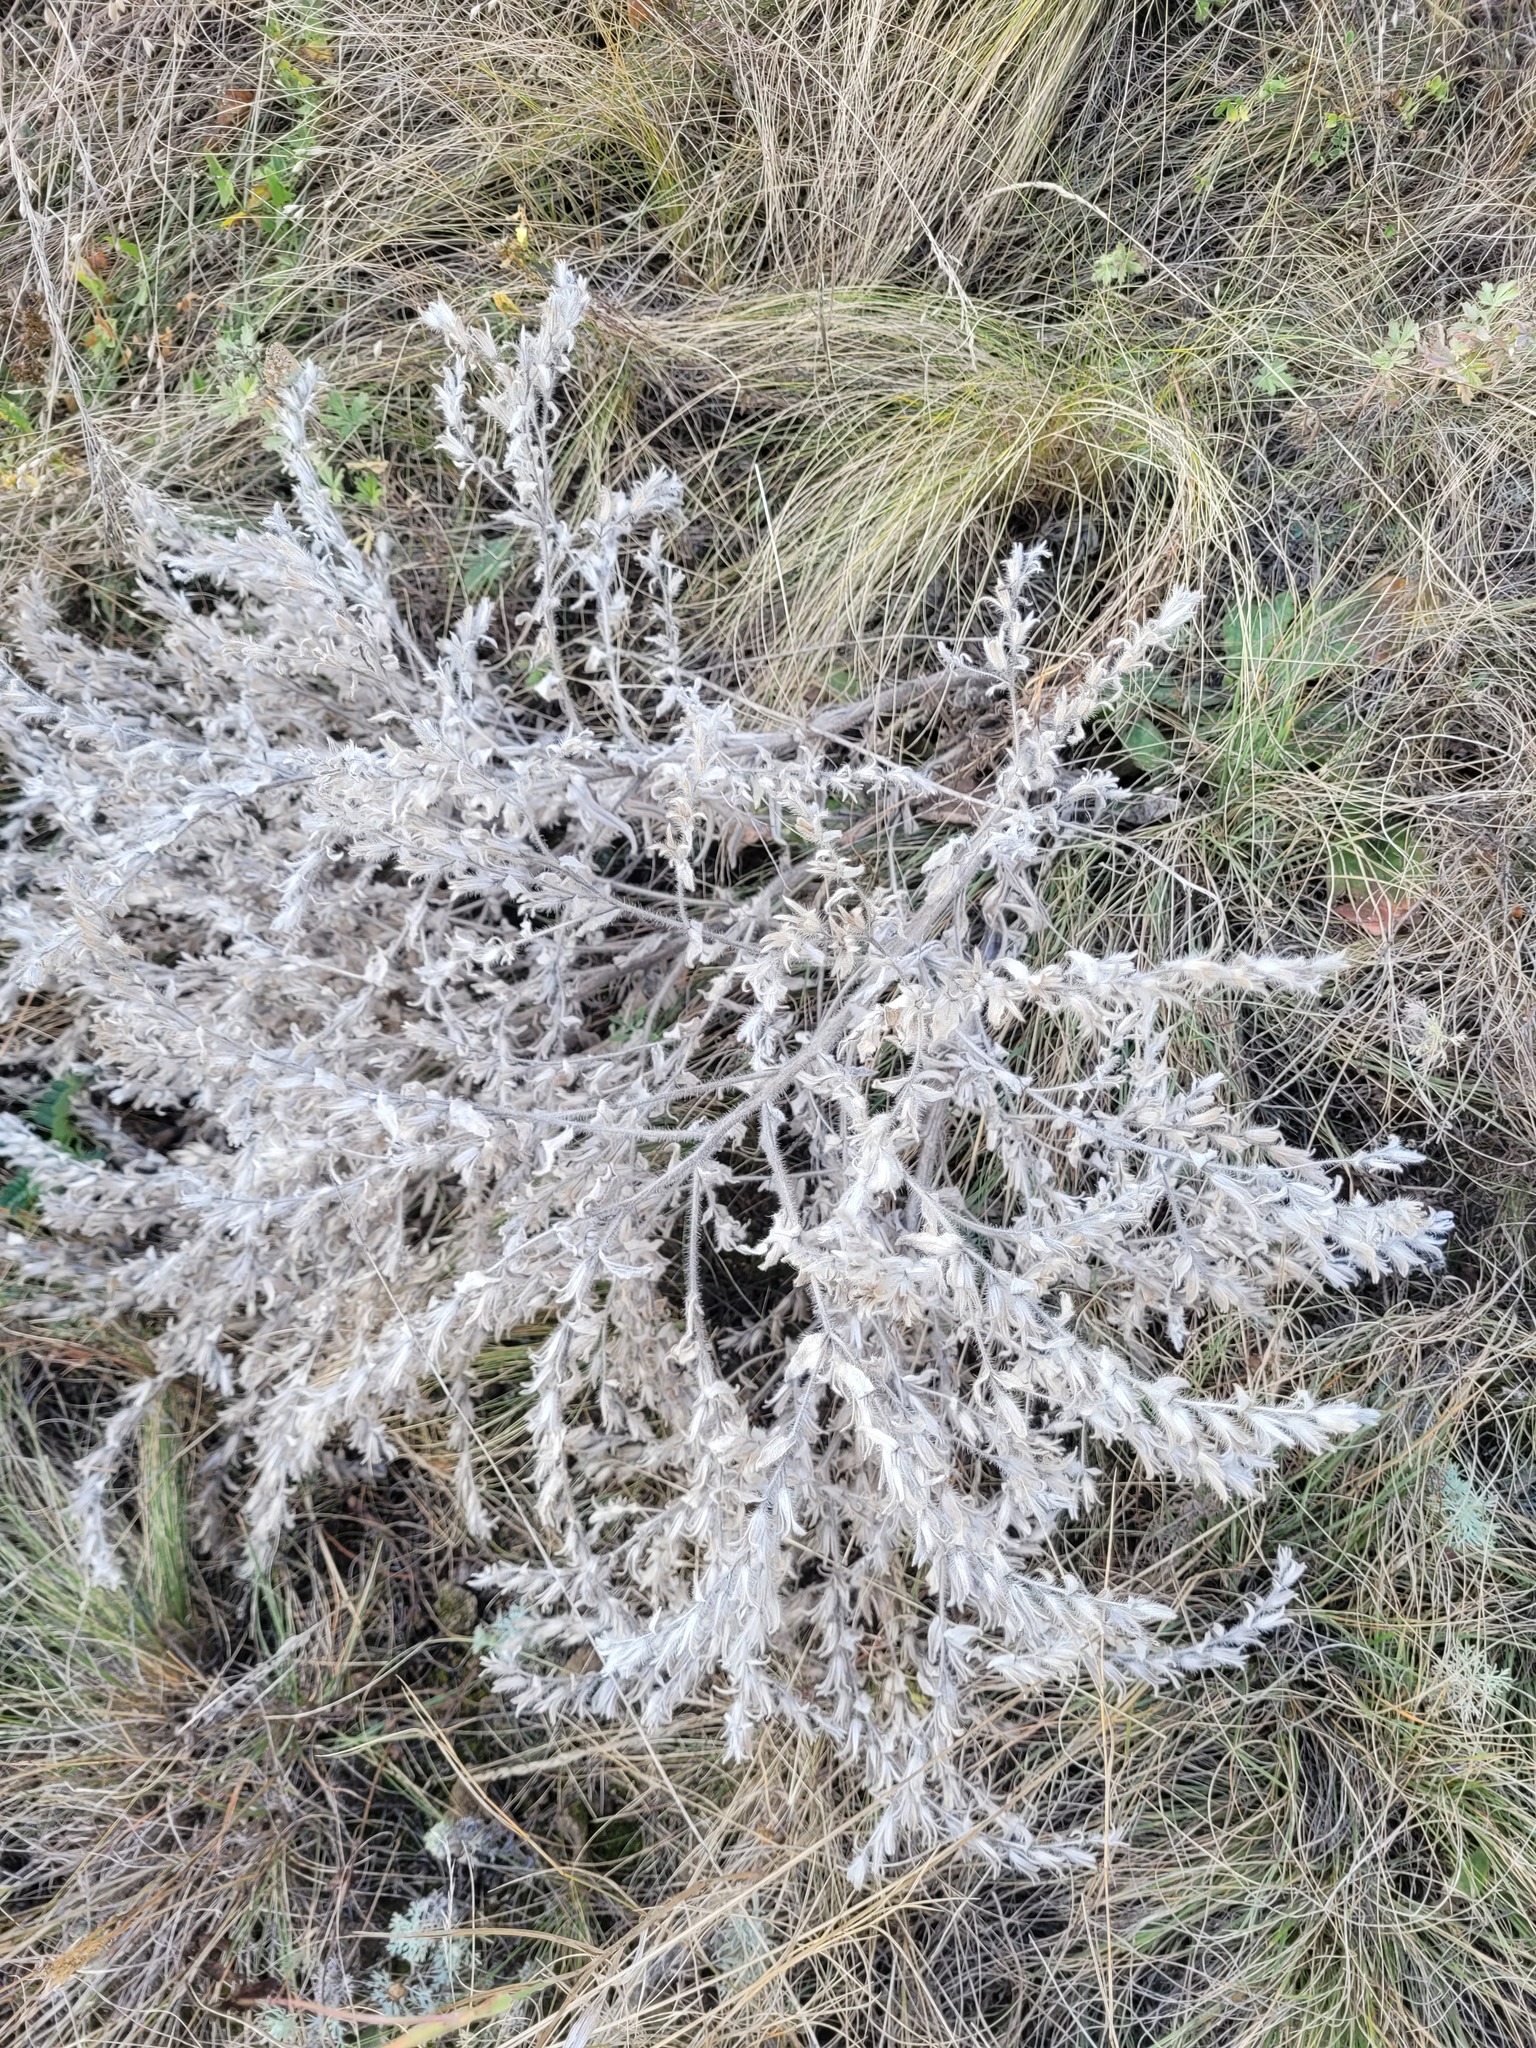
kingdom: Plantae
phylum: Tracheophyta
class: Magnoliopsida
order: Boraginales
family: Boraginaceae
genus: Onosma
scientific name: Onosma polychroma
